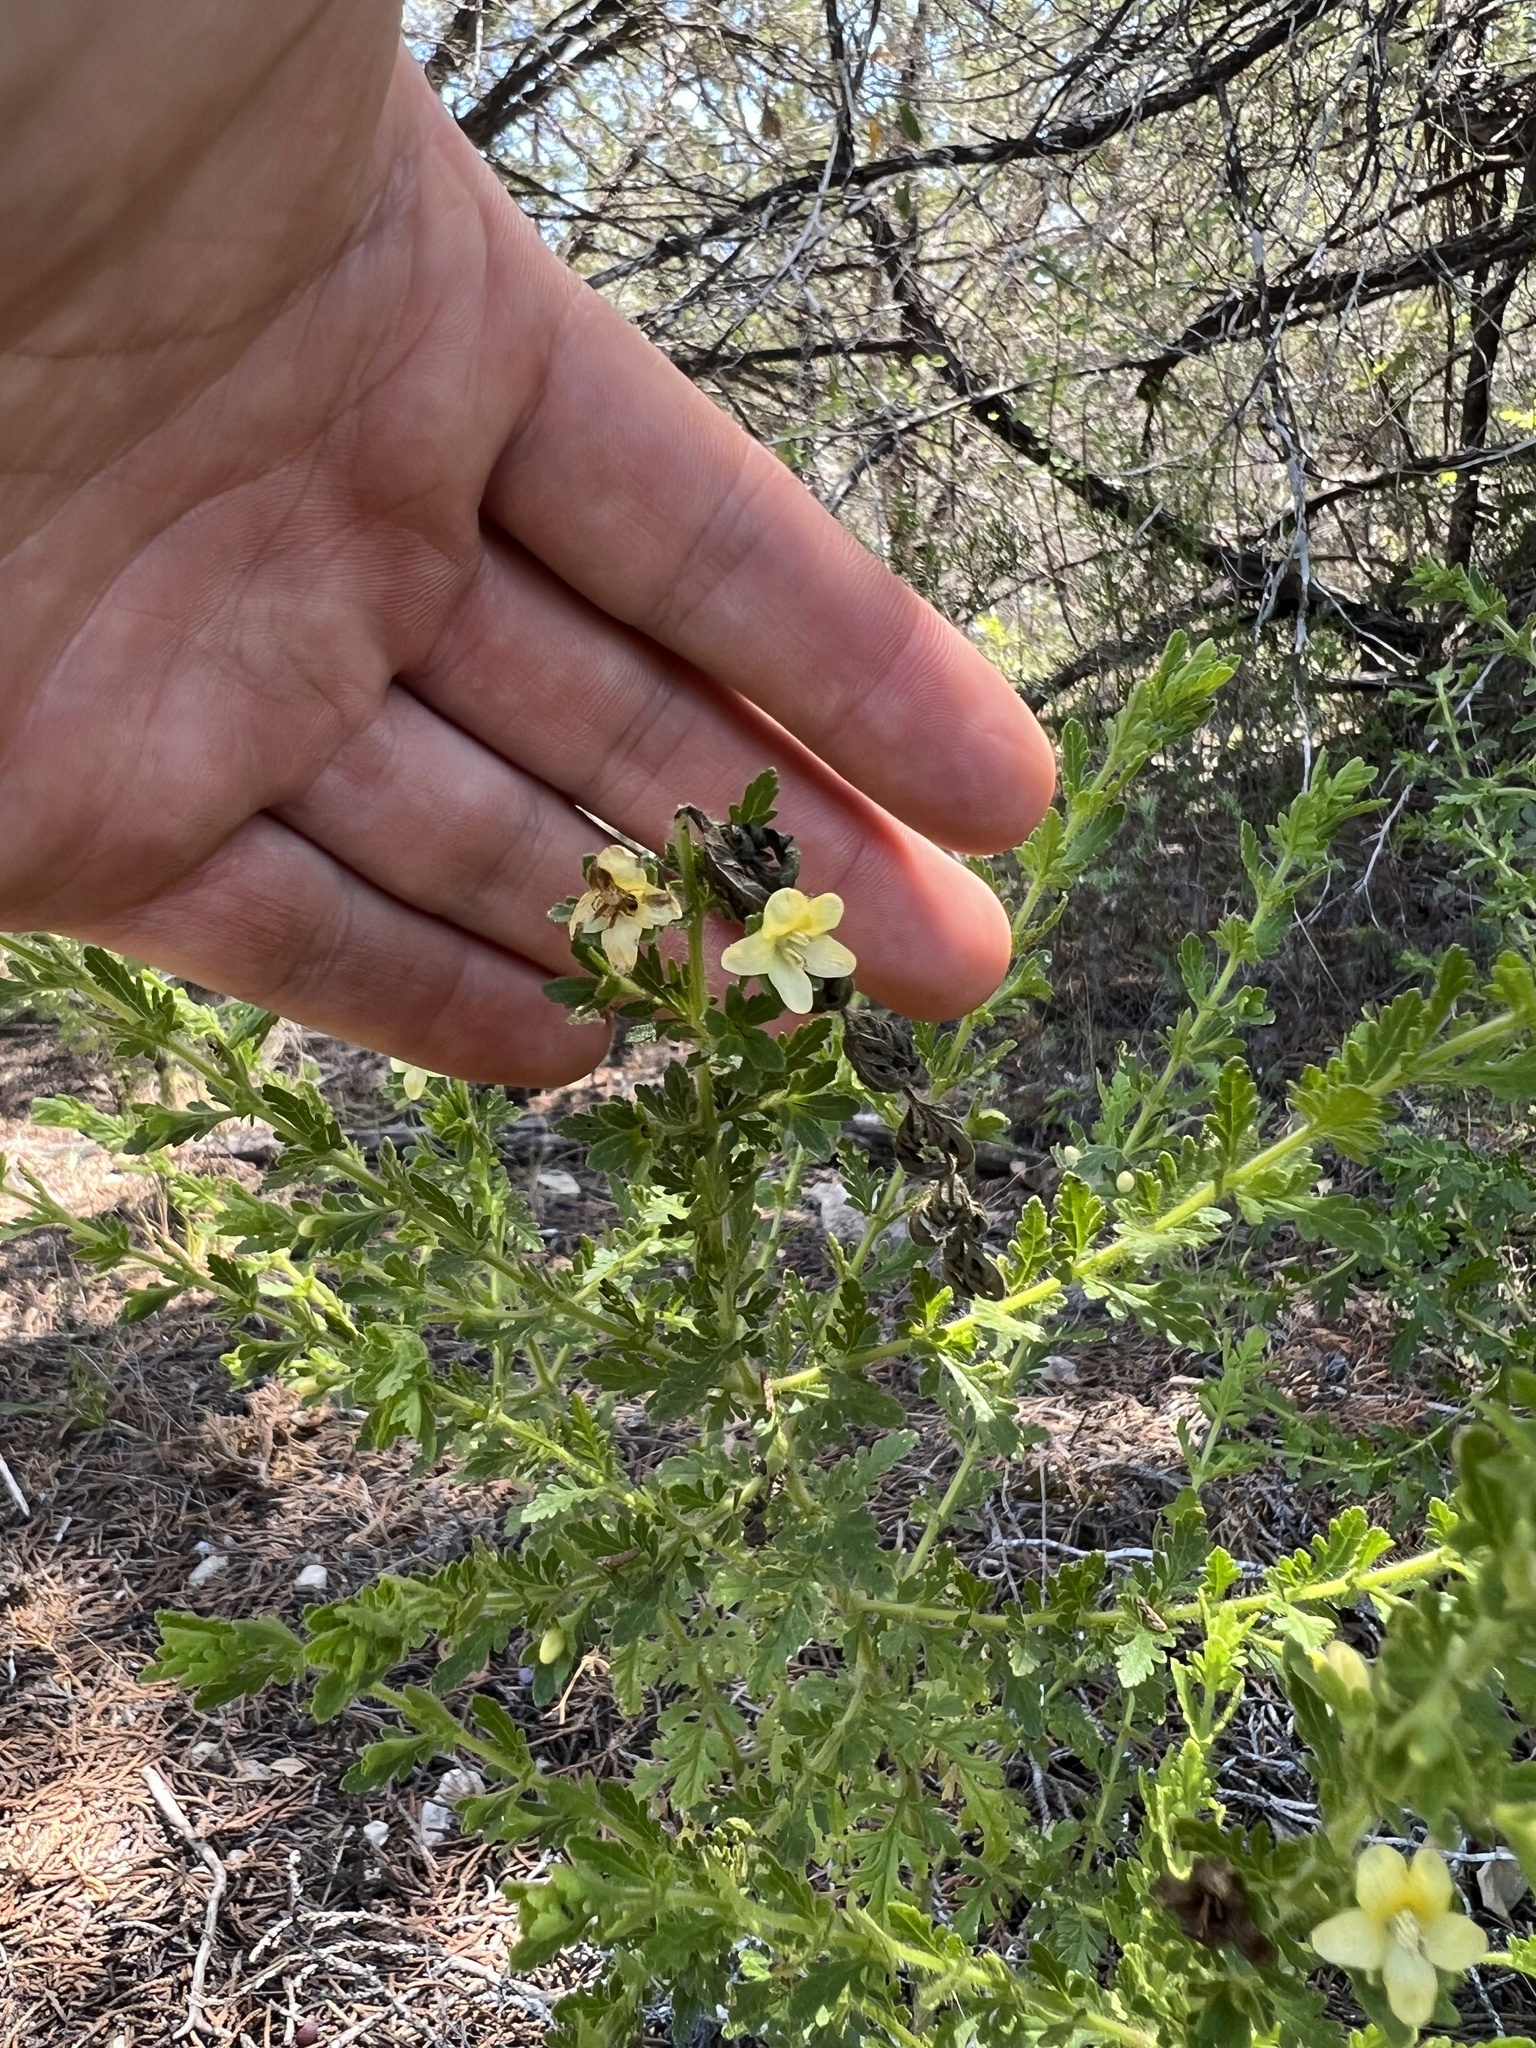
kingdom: Plantae
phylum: Tracheophyta
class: Magnoliopsida
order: Lamiales
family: Orobanchaceae
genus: Seymeria
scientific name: Seymeria bipinnatisecta
